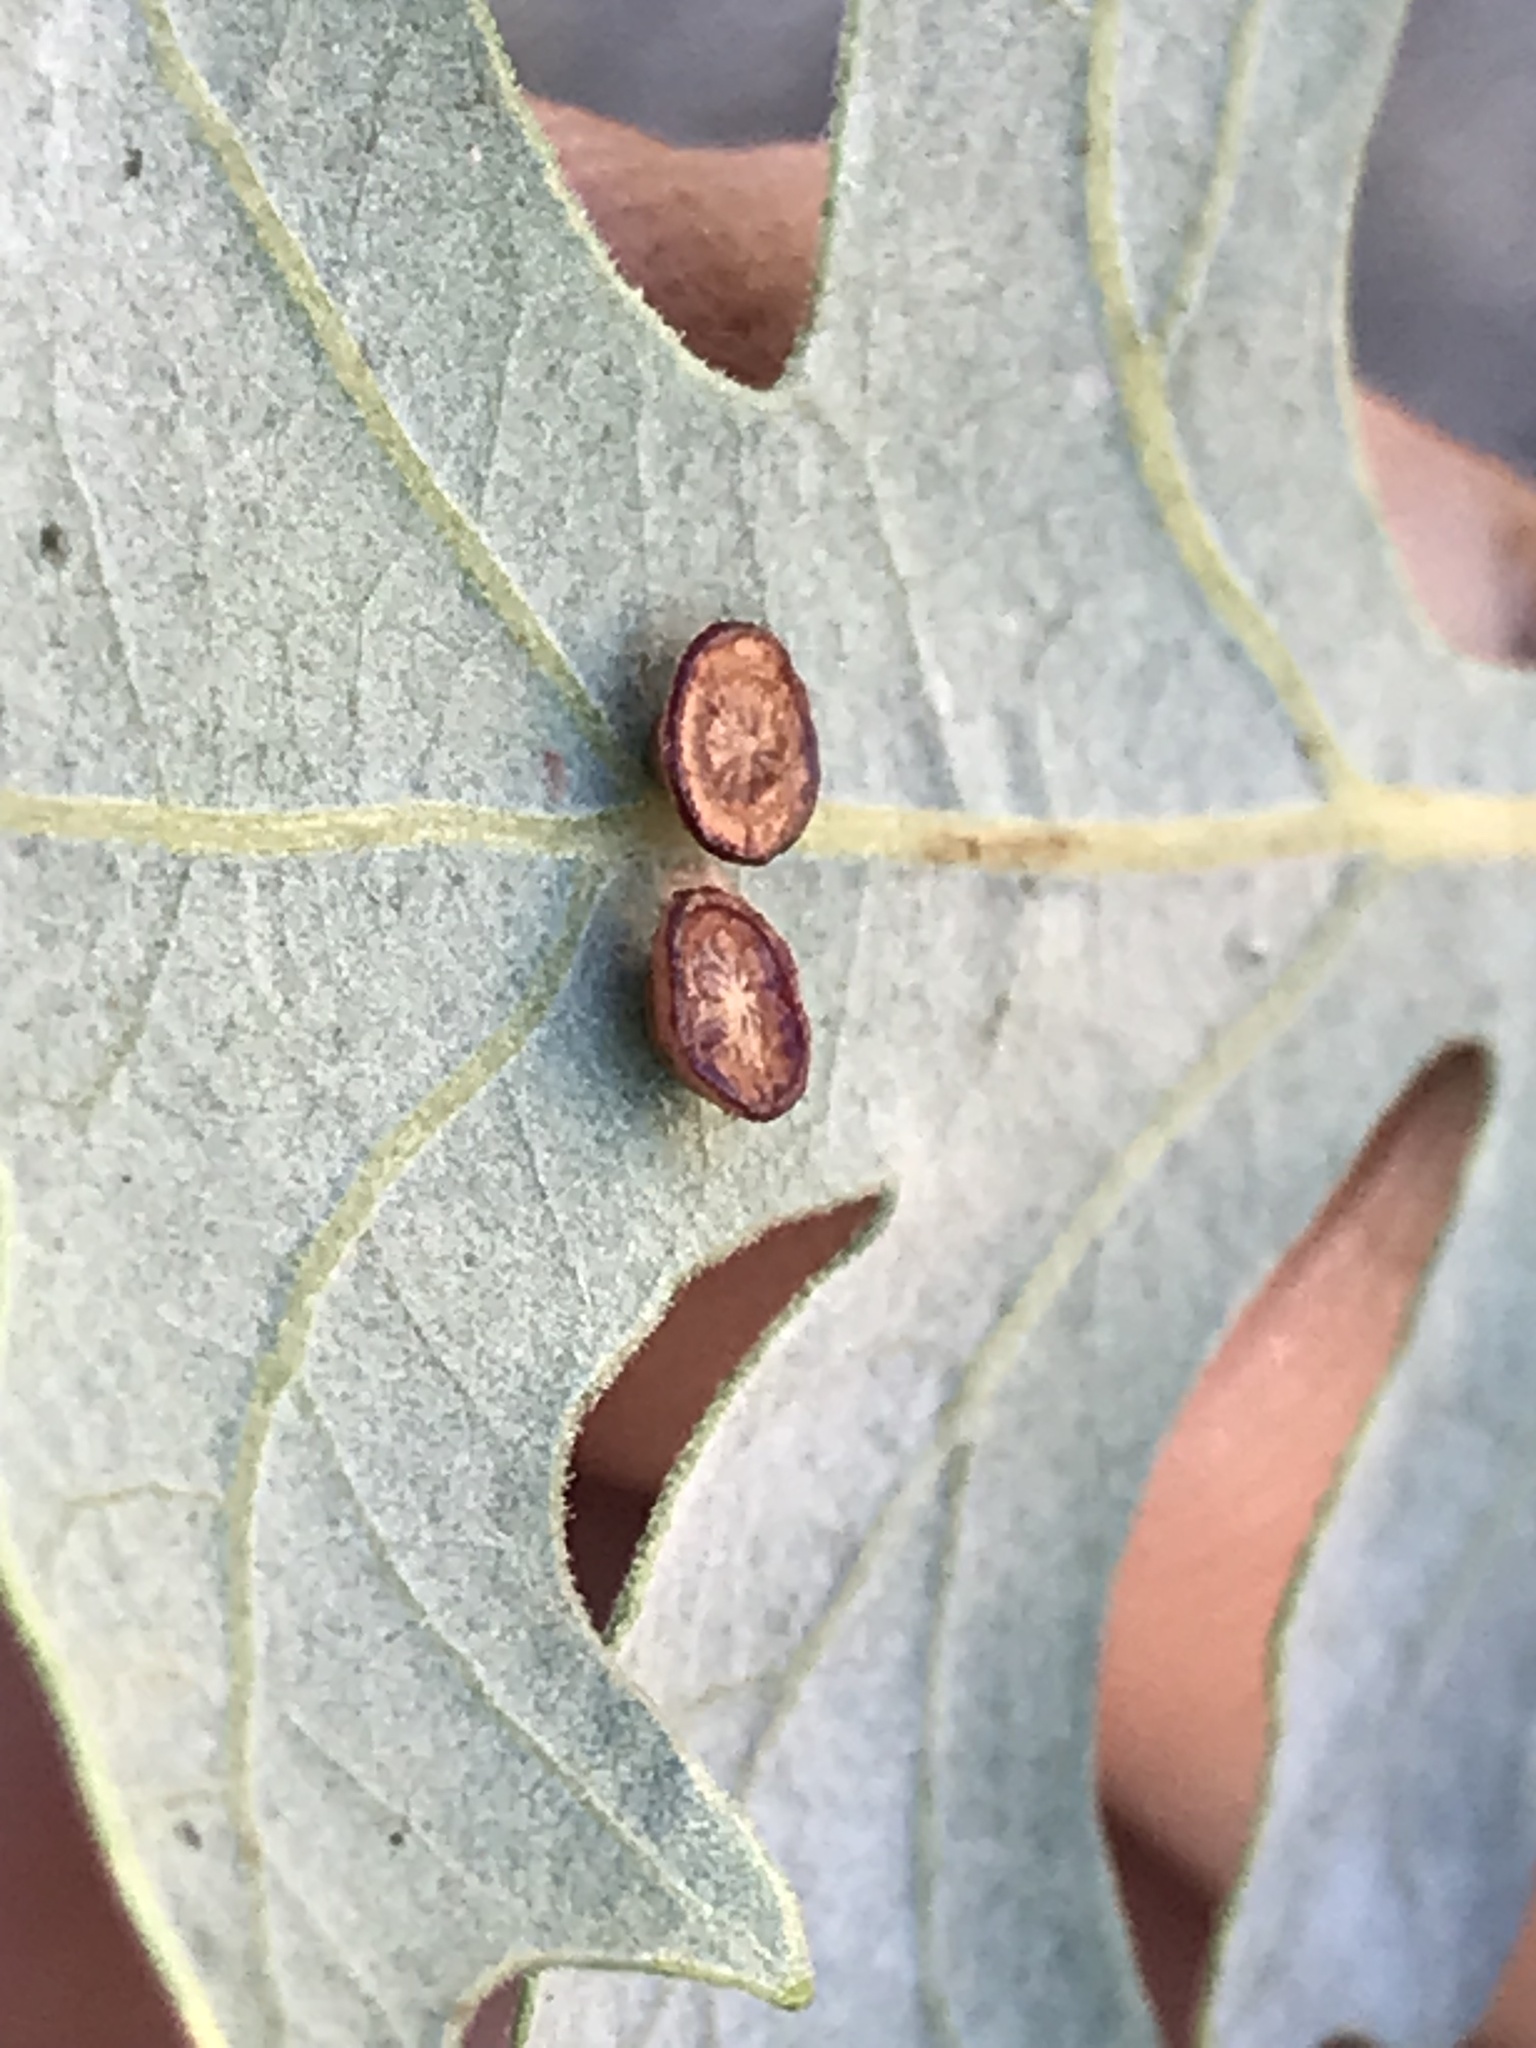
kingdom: Animalia
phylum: Arthropoda
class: Insecta
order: Hymenoptera
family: Cynipidae
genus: Andricus
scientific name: Andricus
